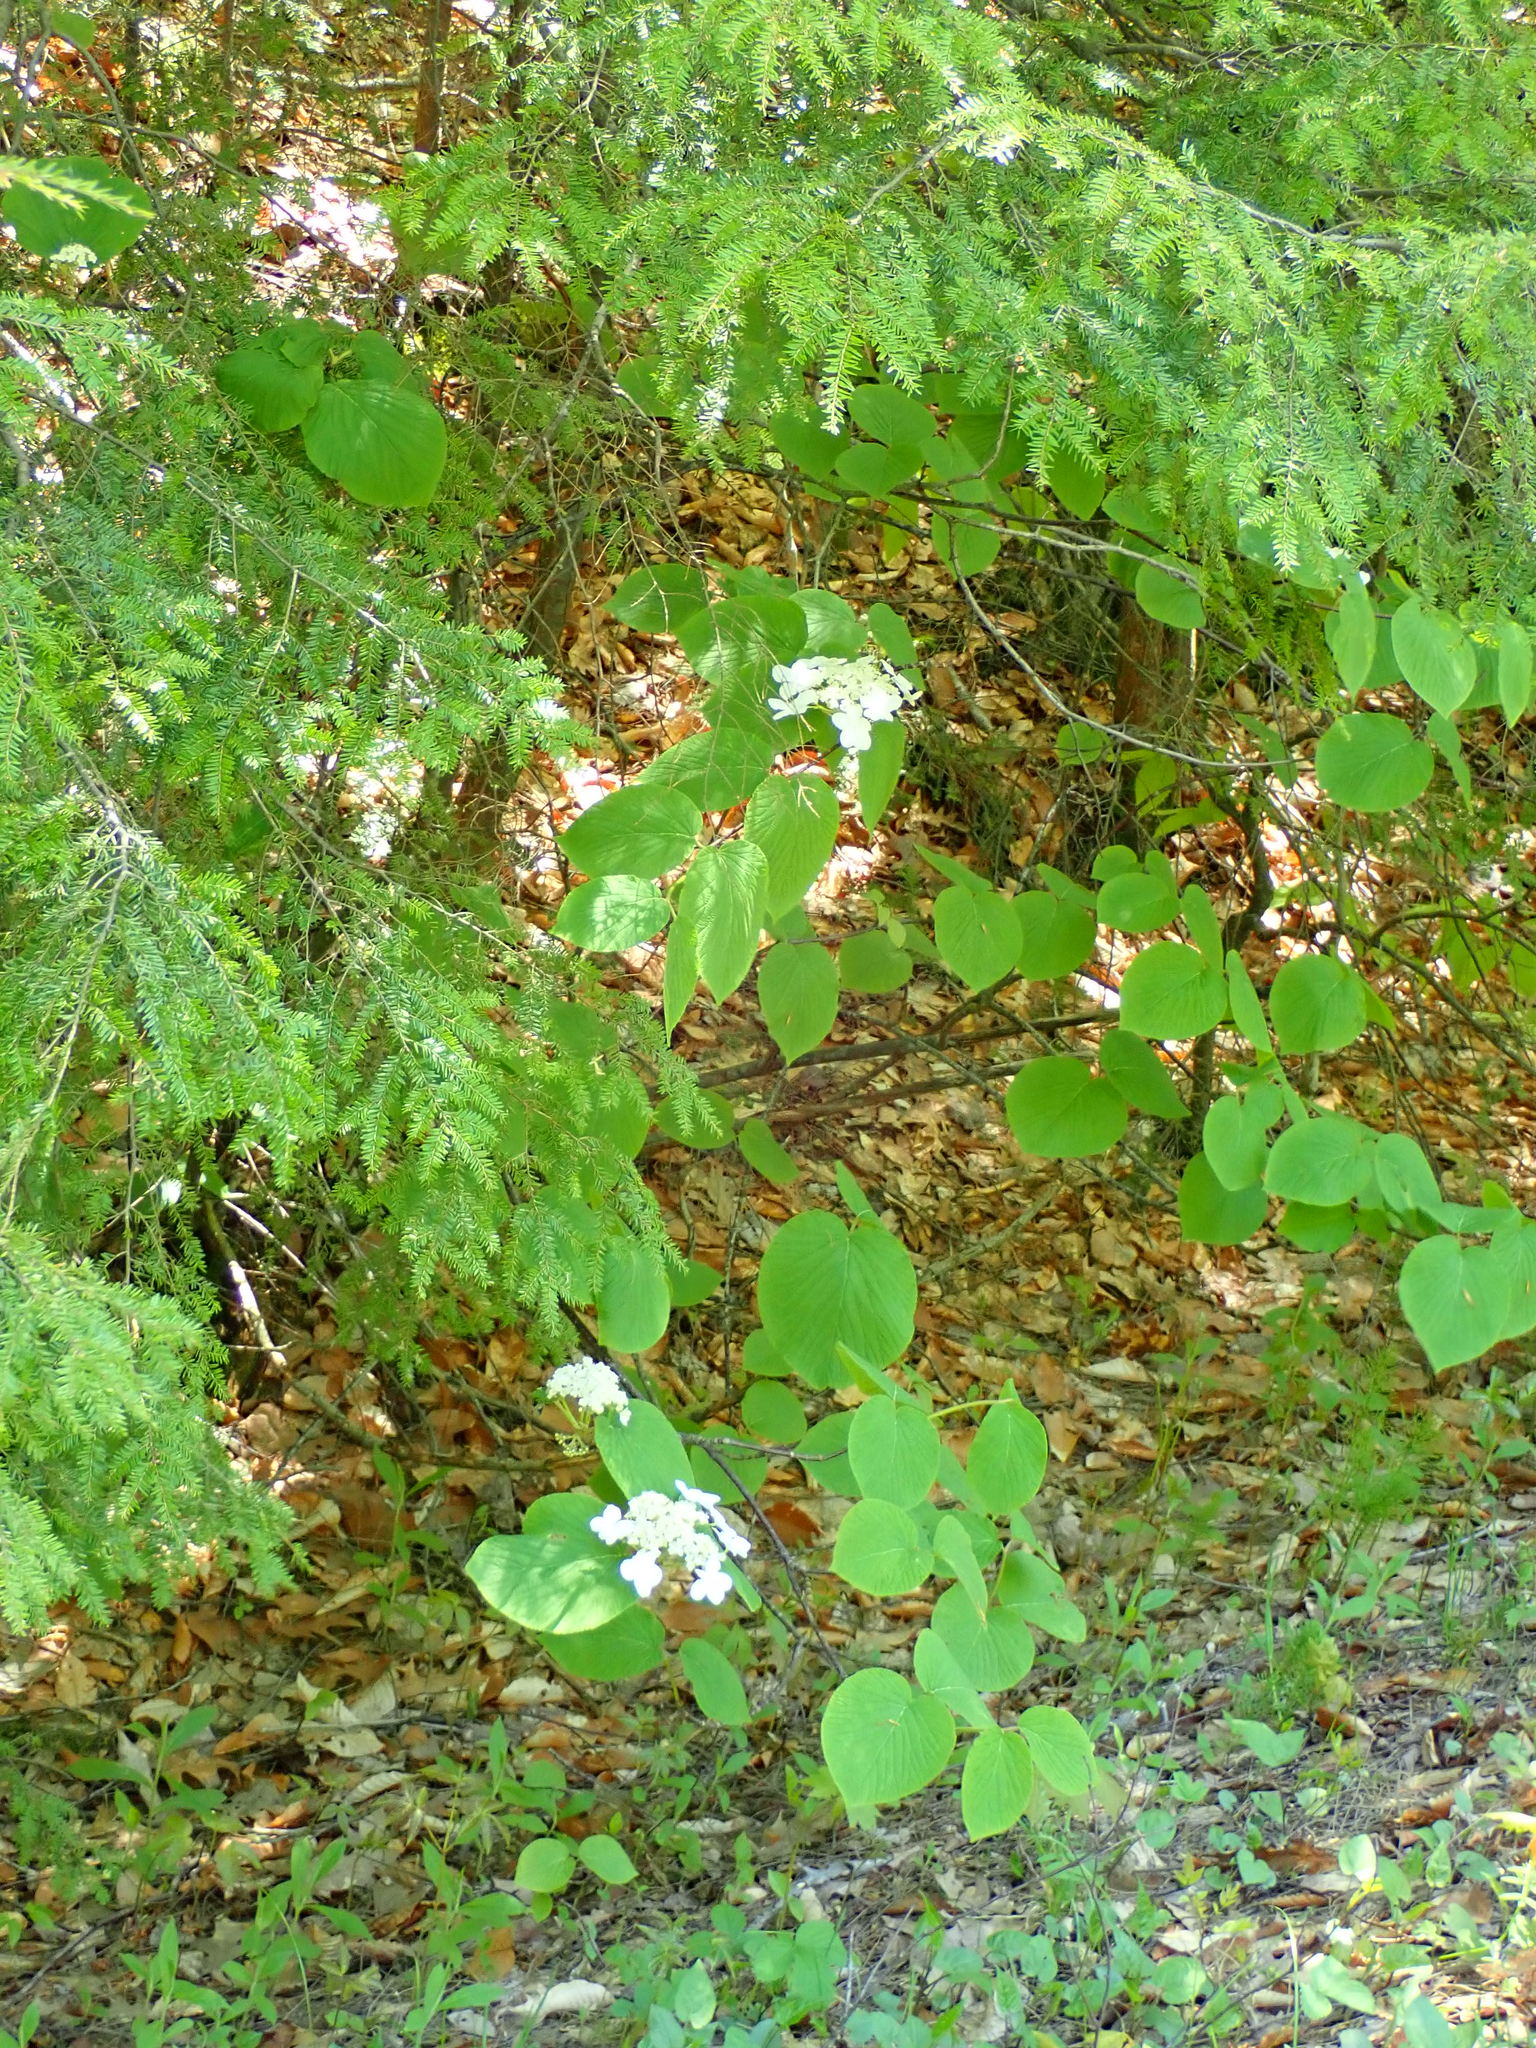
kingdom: Plantae
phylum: Tracheophyta
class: Magnoliopsida
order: Dipsacales
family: Viburnaceae
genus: Viburnum
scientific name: Viburnum lantanoides
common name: Hobblebush
